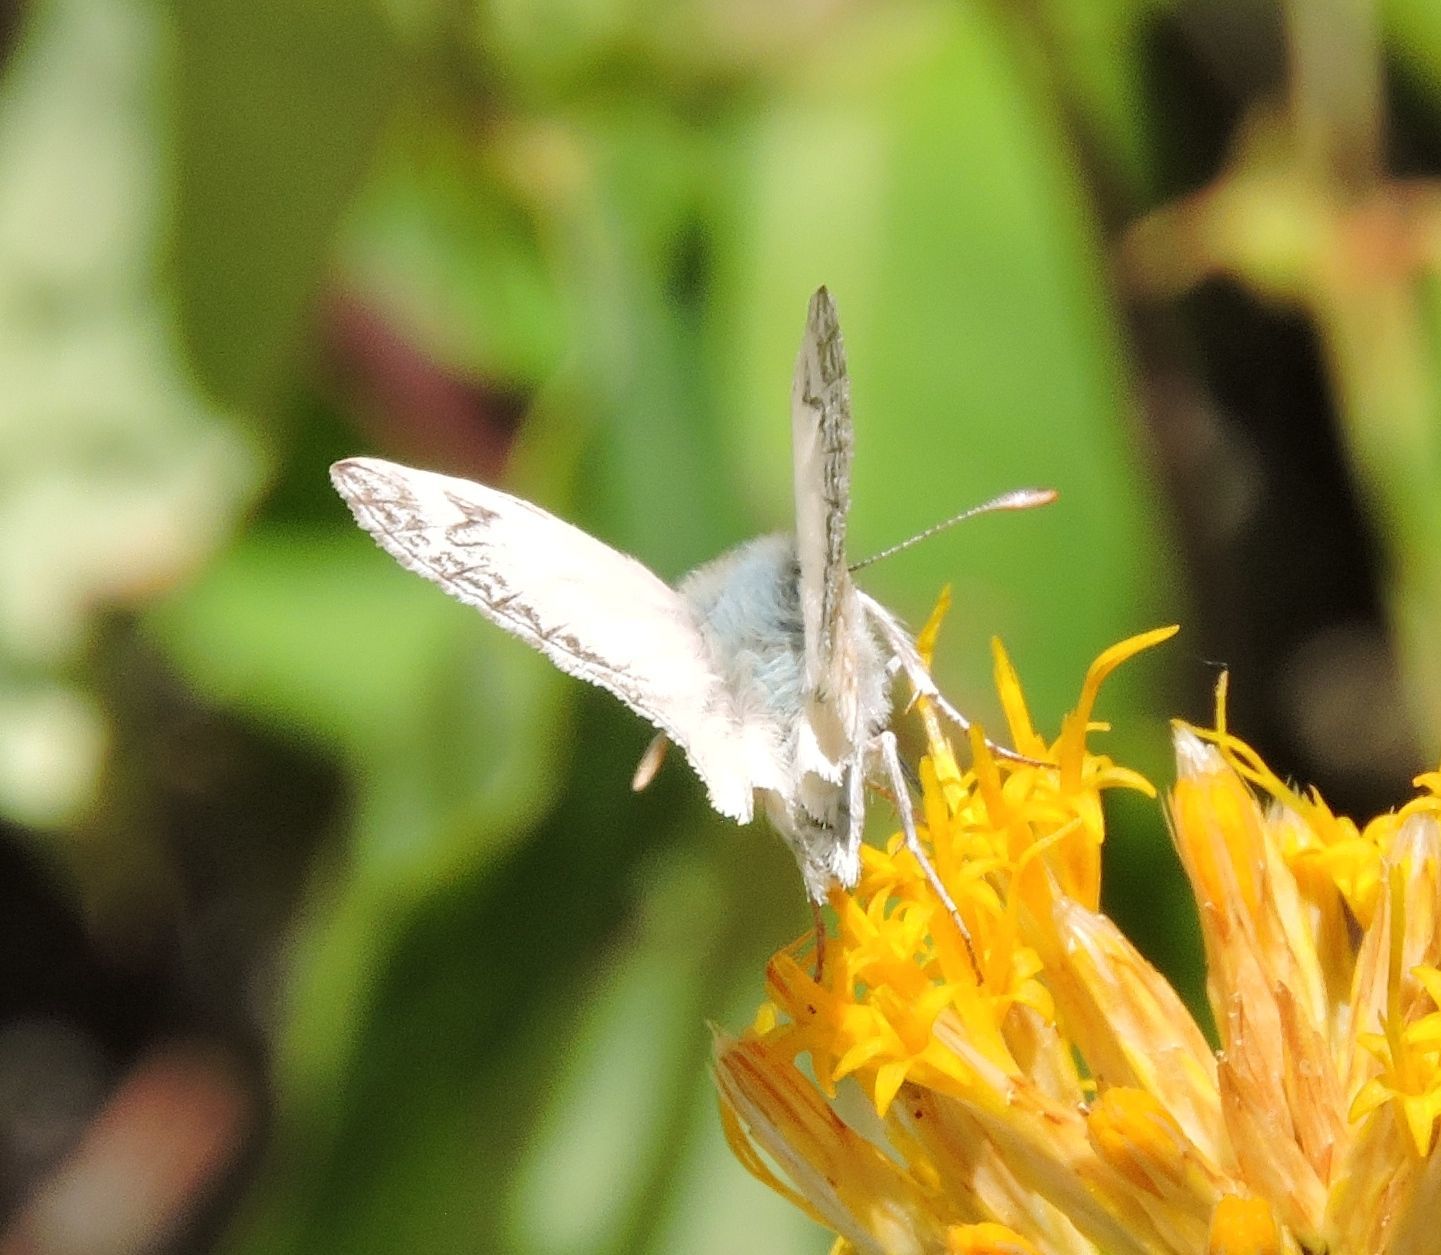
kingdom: Animalia
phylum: Arthropoda
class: Insecta
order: Lepidoptera
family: Hesperiidae
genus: Heliopetes
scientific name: Heliopetes ericetorum
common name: Northern white-skipper
